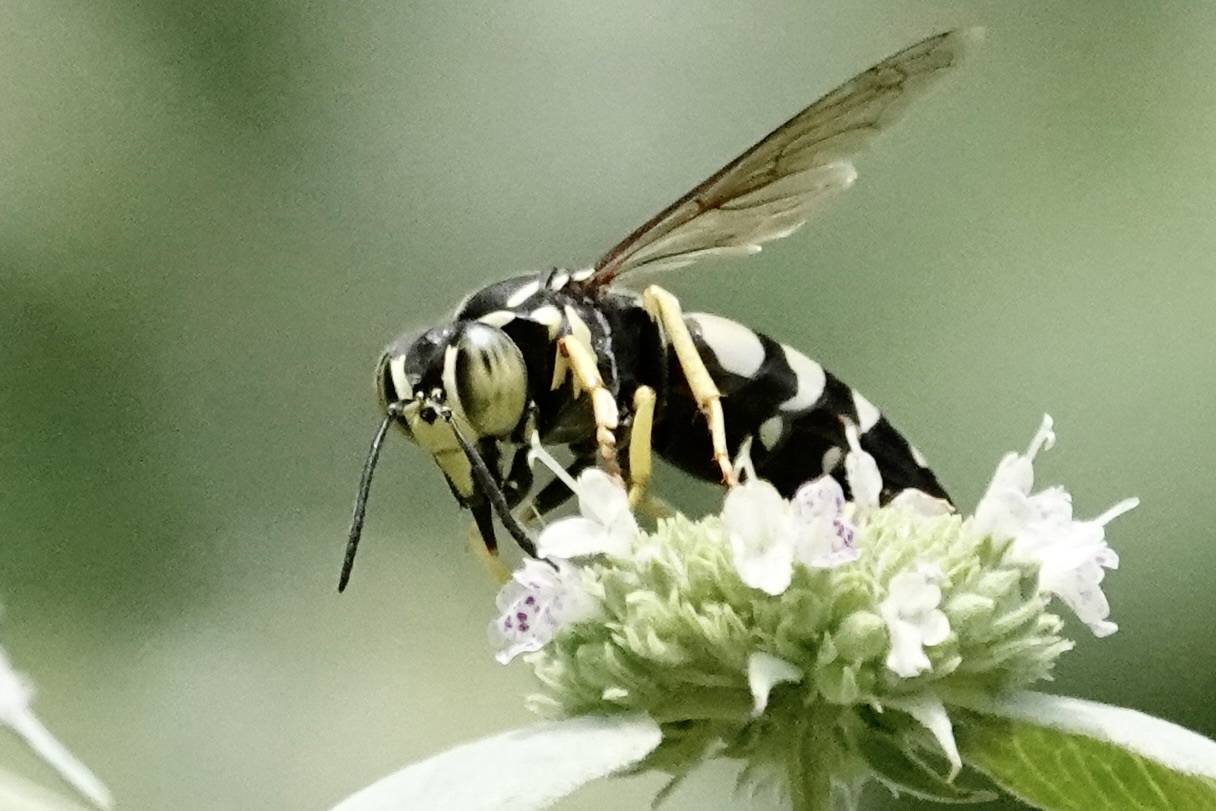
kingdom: Animalia
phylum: Arthropoda
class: Insecta
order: Hymenoptera
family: Crabronidae
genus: Bicyrtes
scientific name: Bicyrtes quadrifasciatus
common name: Four-banded stink bug hunter wasp
